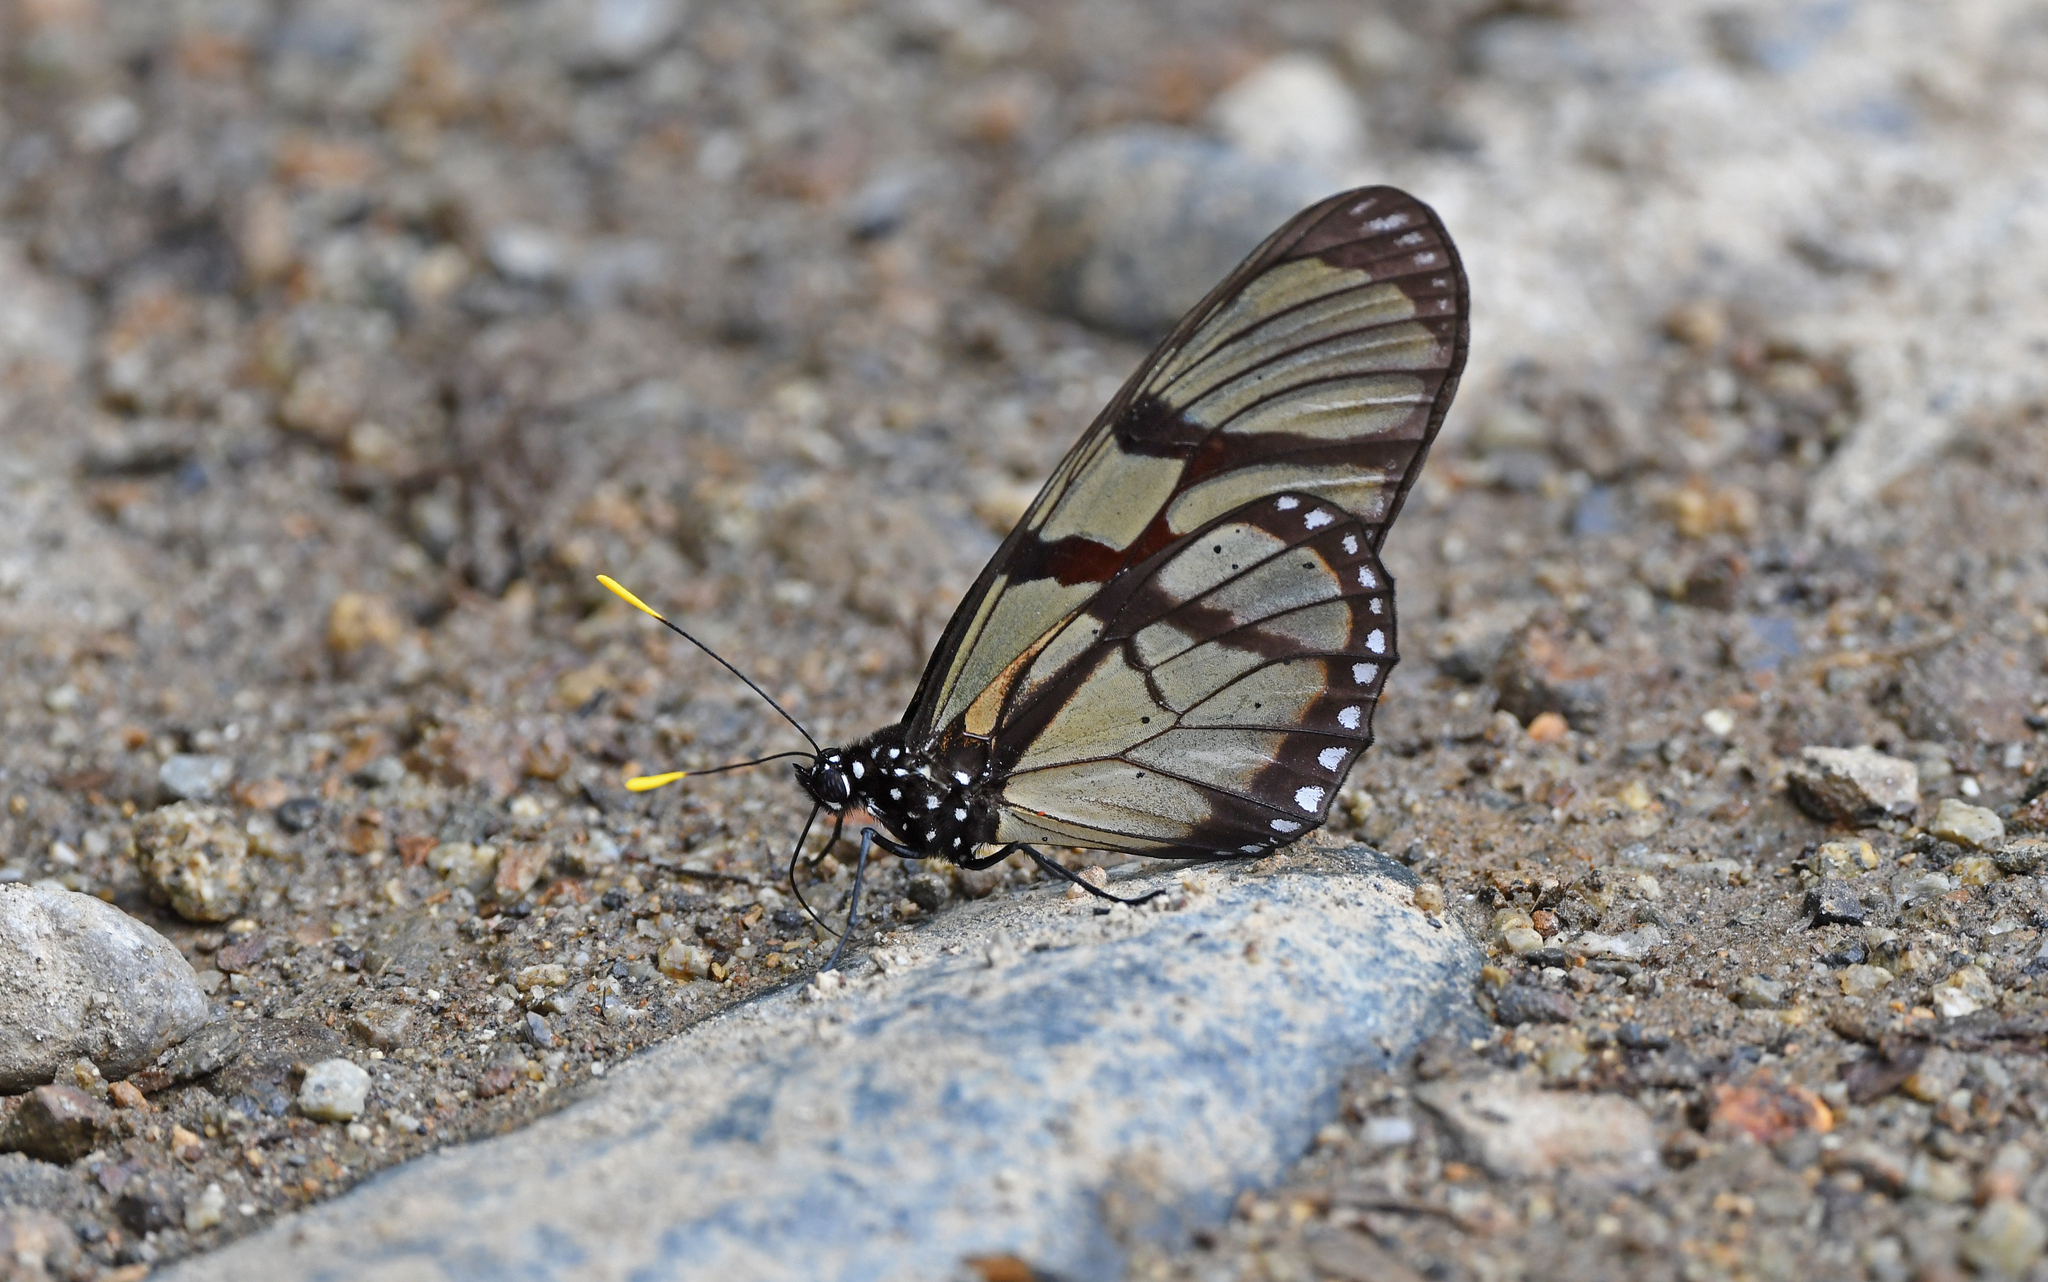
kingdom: Animalia
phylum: Arthropoda
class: Insecta
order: Lepidoptera
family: Nymphalidae
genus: Lycorea
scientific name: Lycorea ilione
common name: Clearwing mimic-queen
